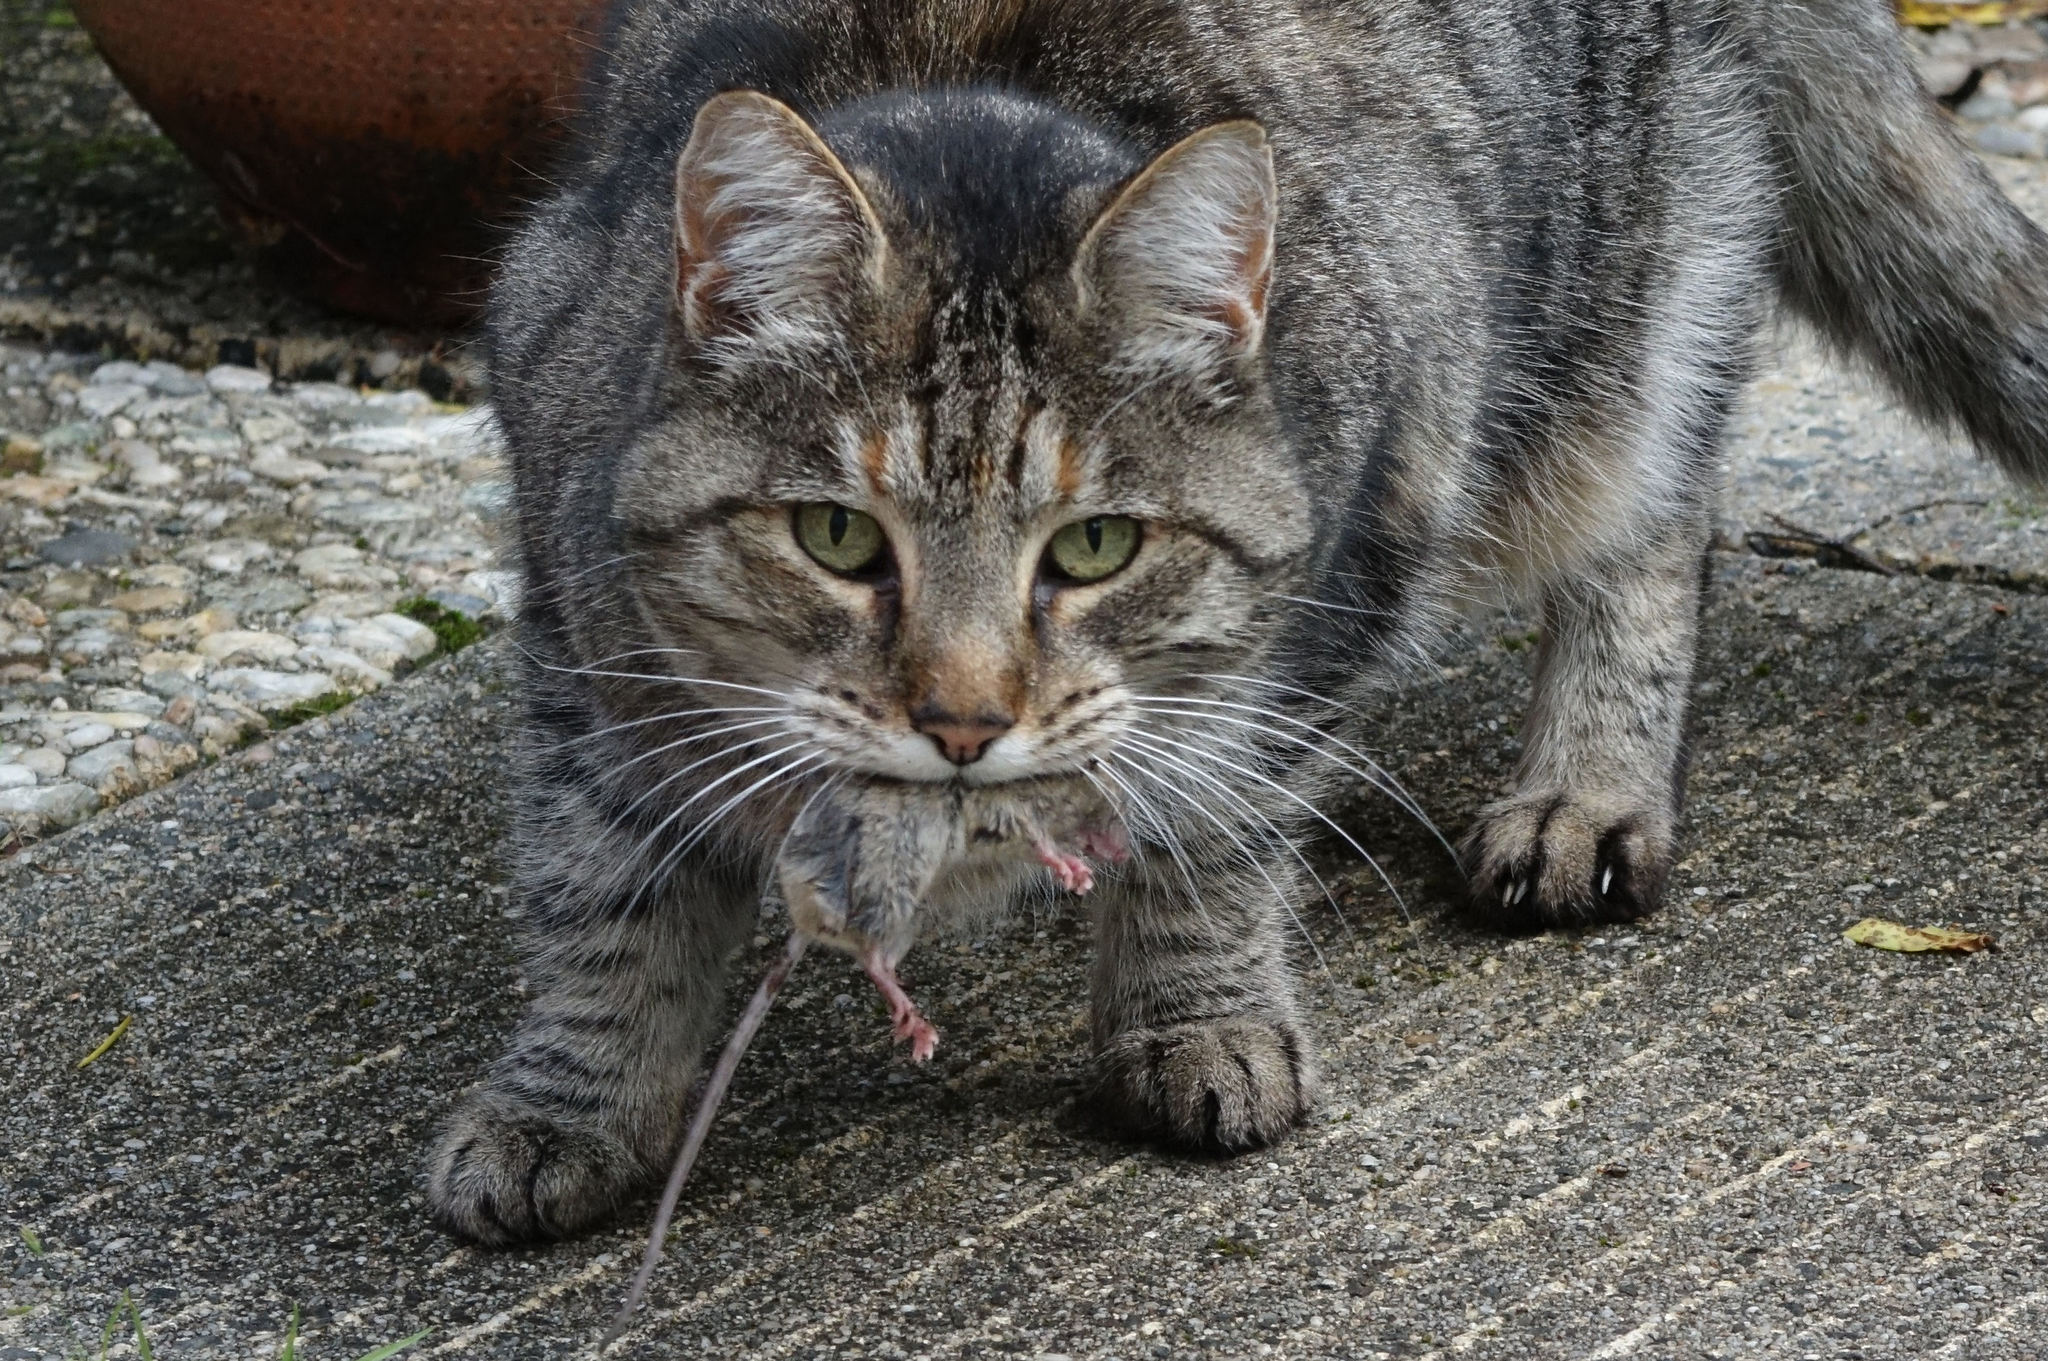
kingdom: Animalia
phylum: Chordata
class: Mammalia
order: Rodentia
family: Muridae
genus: Mus
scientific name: Mus musculus
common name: House mouse
